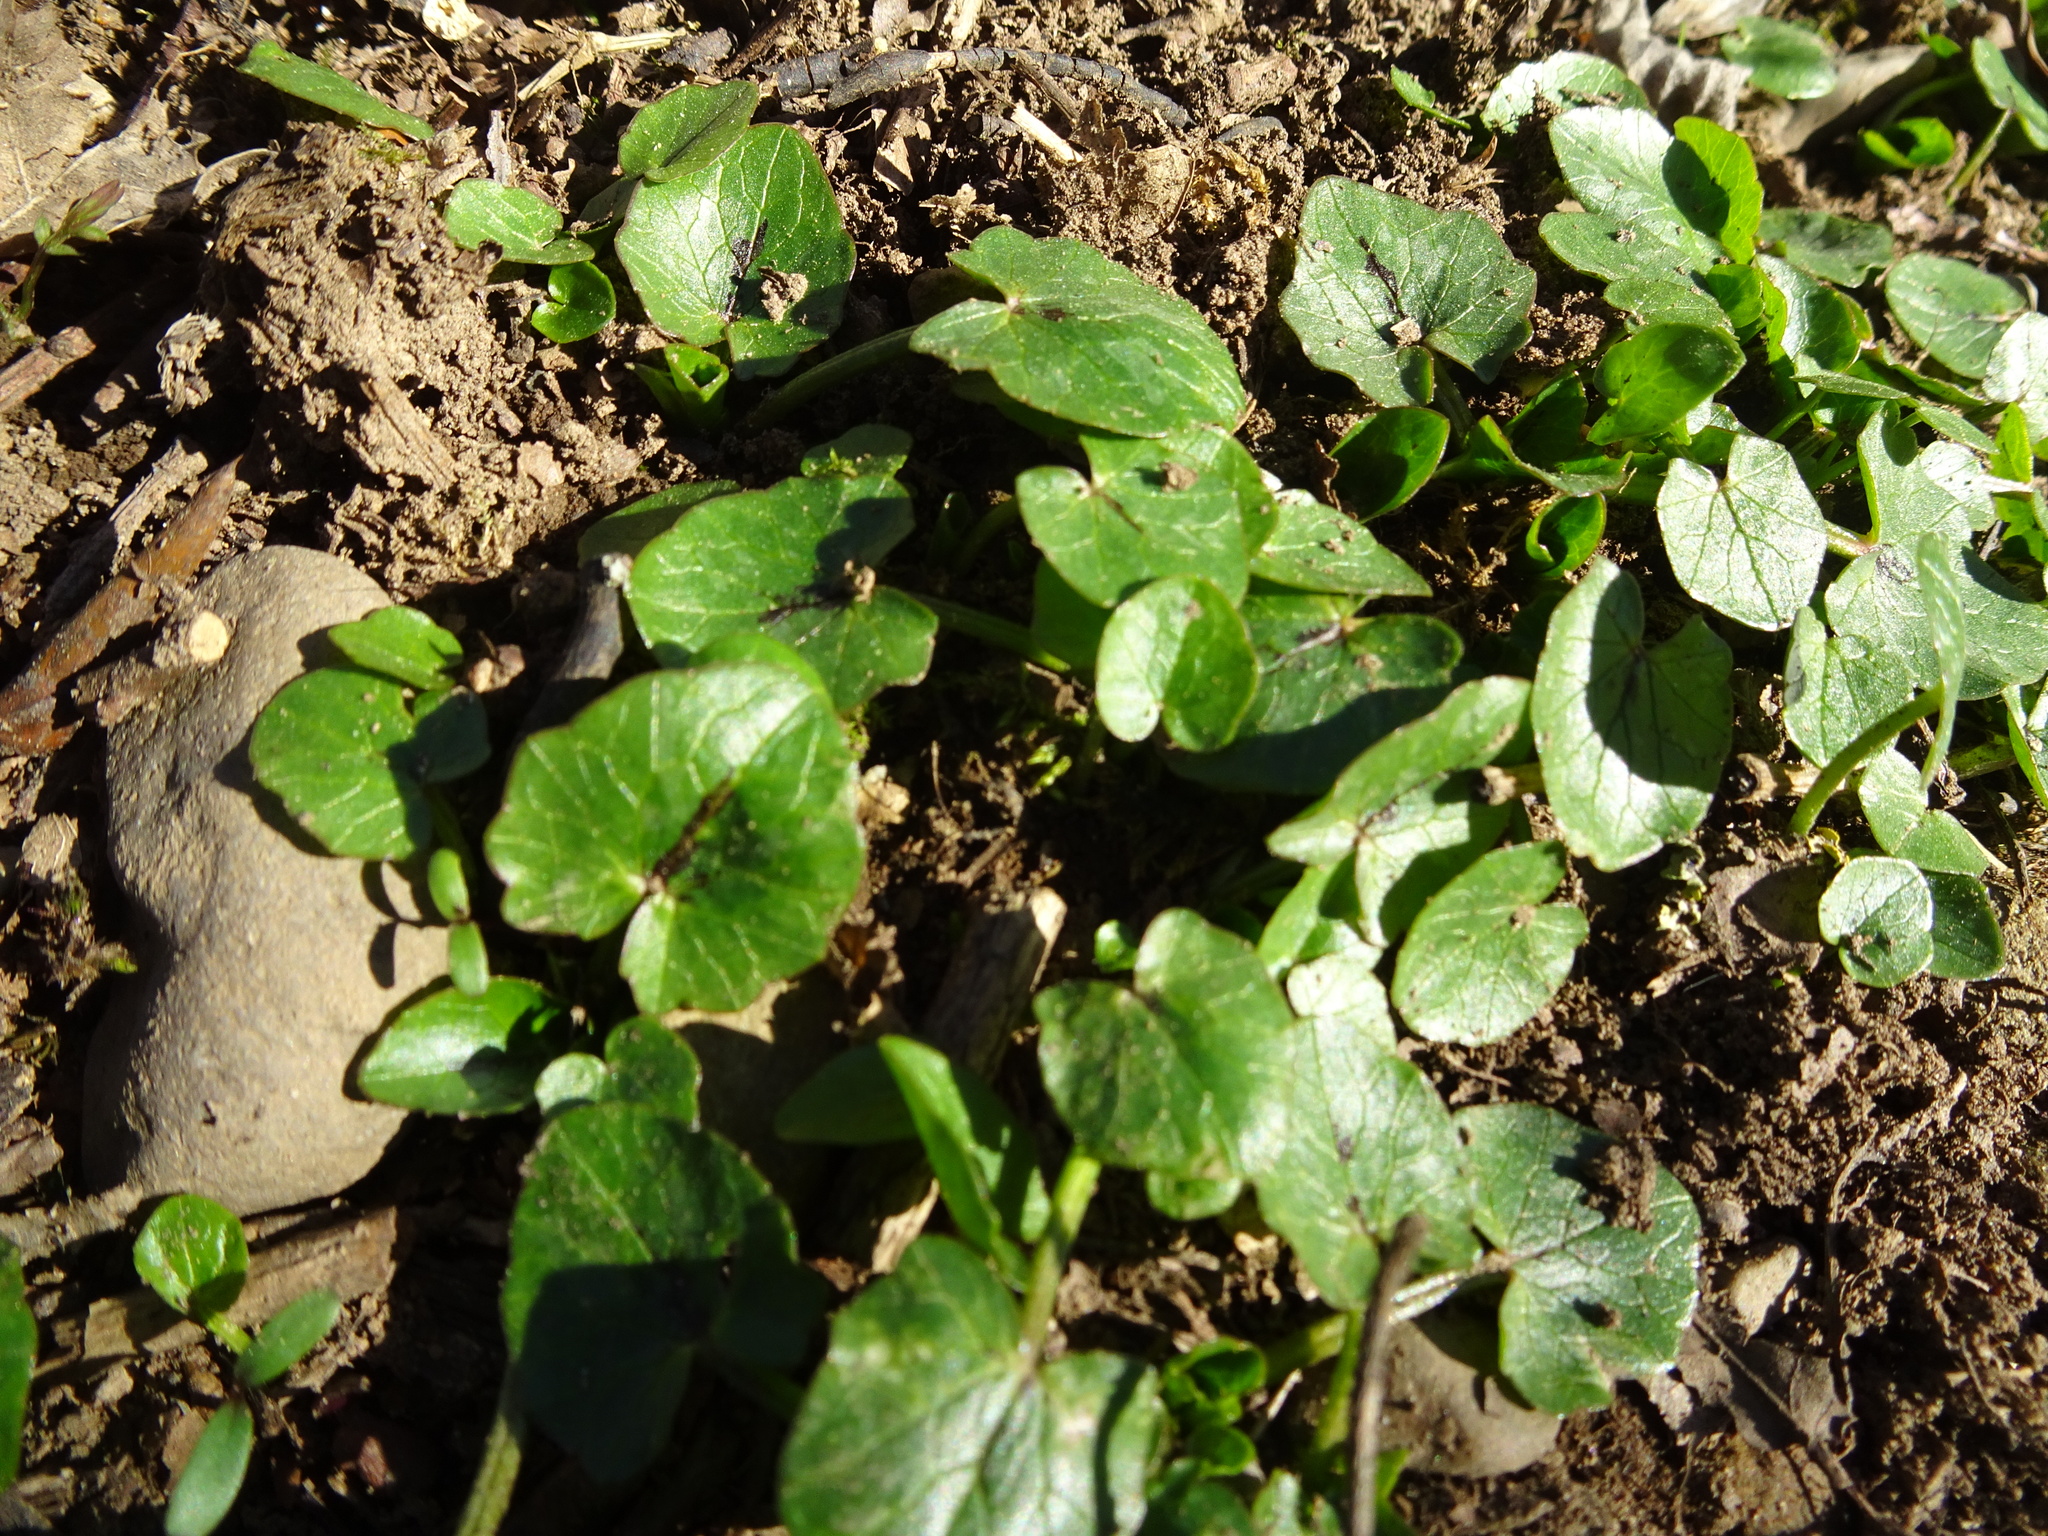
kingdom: Plantae
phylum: Tracheophyta
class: Magnoliopsida
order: Ranunculales
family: Ranunculaceae
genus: Ficaria
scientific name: Ficaria verna
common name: Lesser celandine
